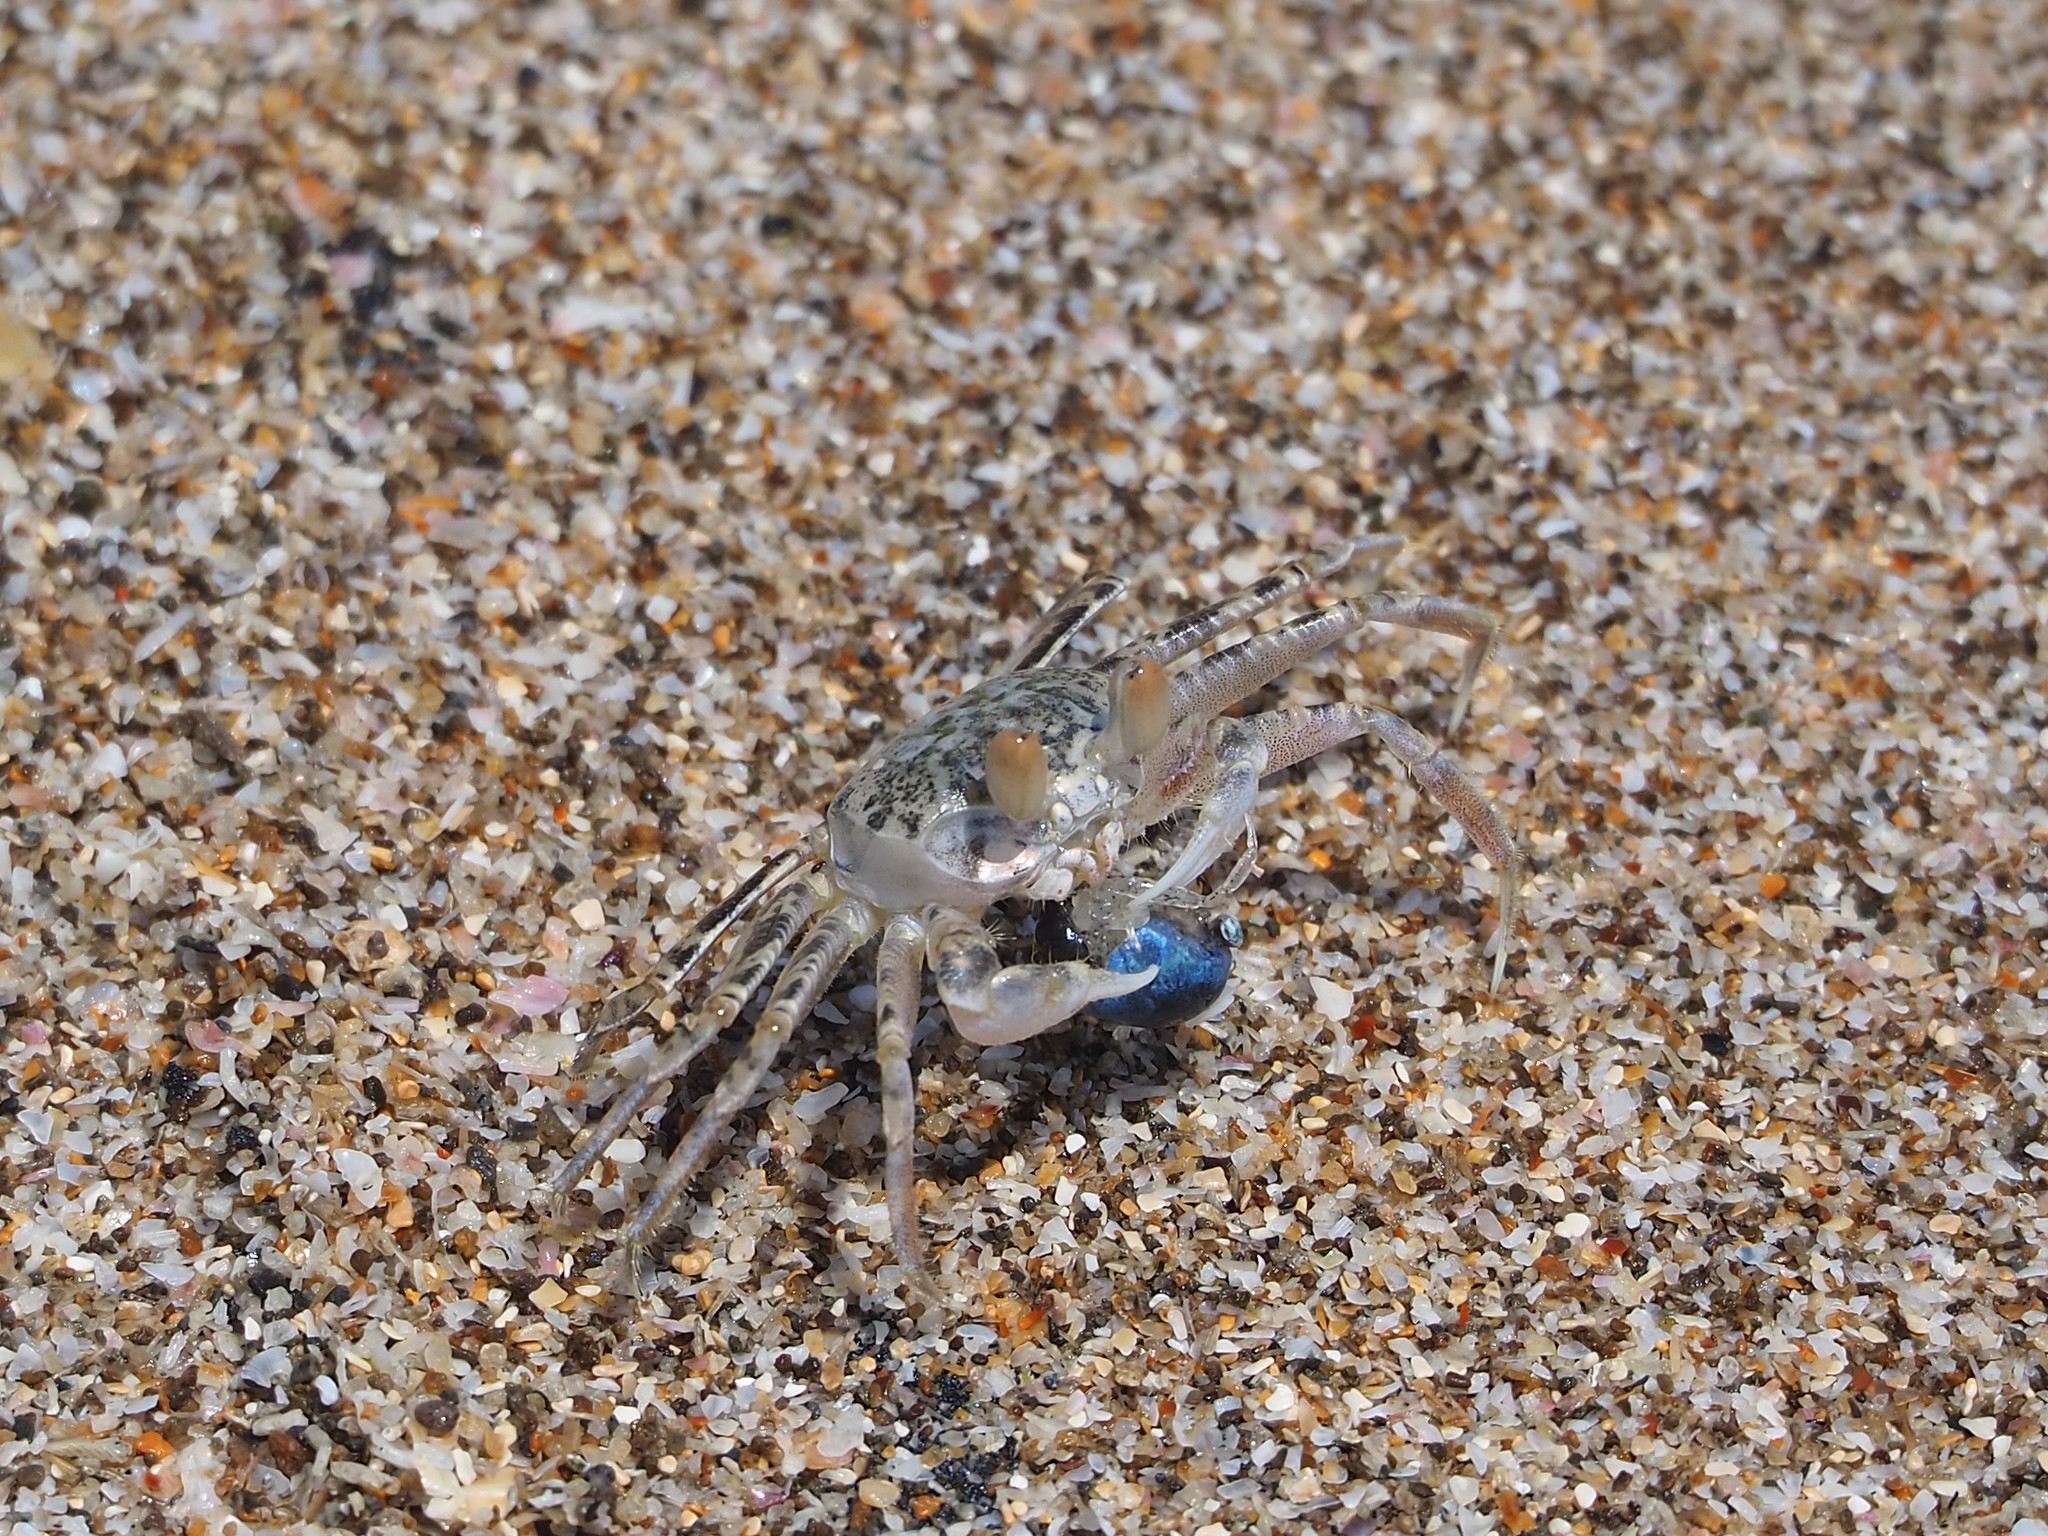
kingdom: Animalia
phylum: Arthropoda
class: Malacostraca
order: Decapoda
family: Ocypodidae
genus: Ocypode
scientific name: Ocypode ceratophthalmus
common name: Indo-pacific ghost crab
